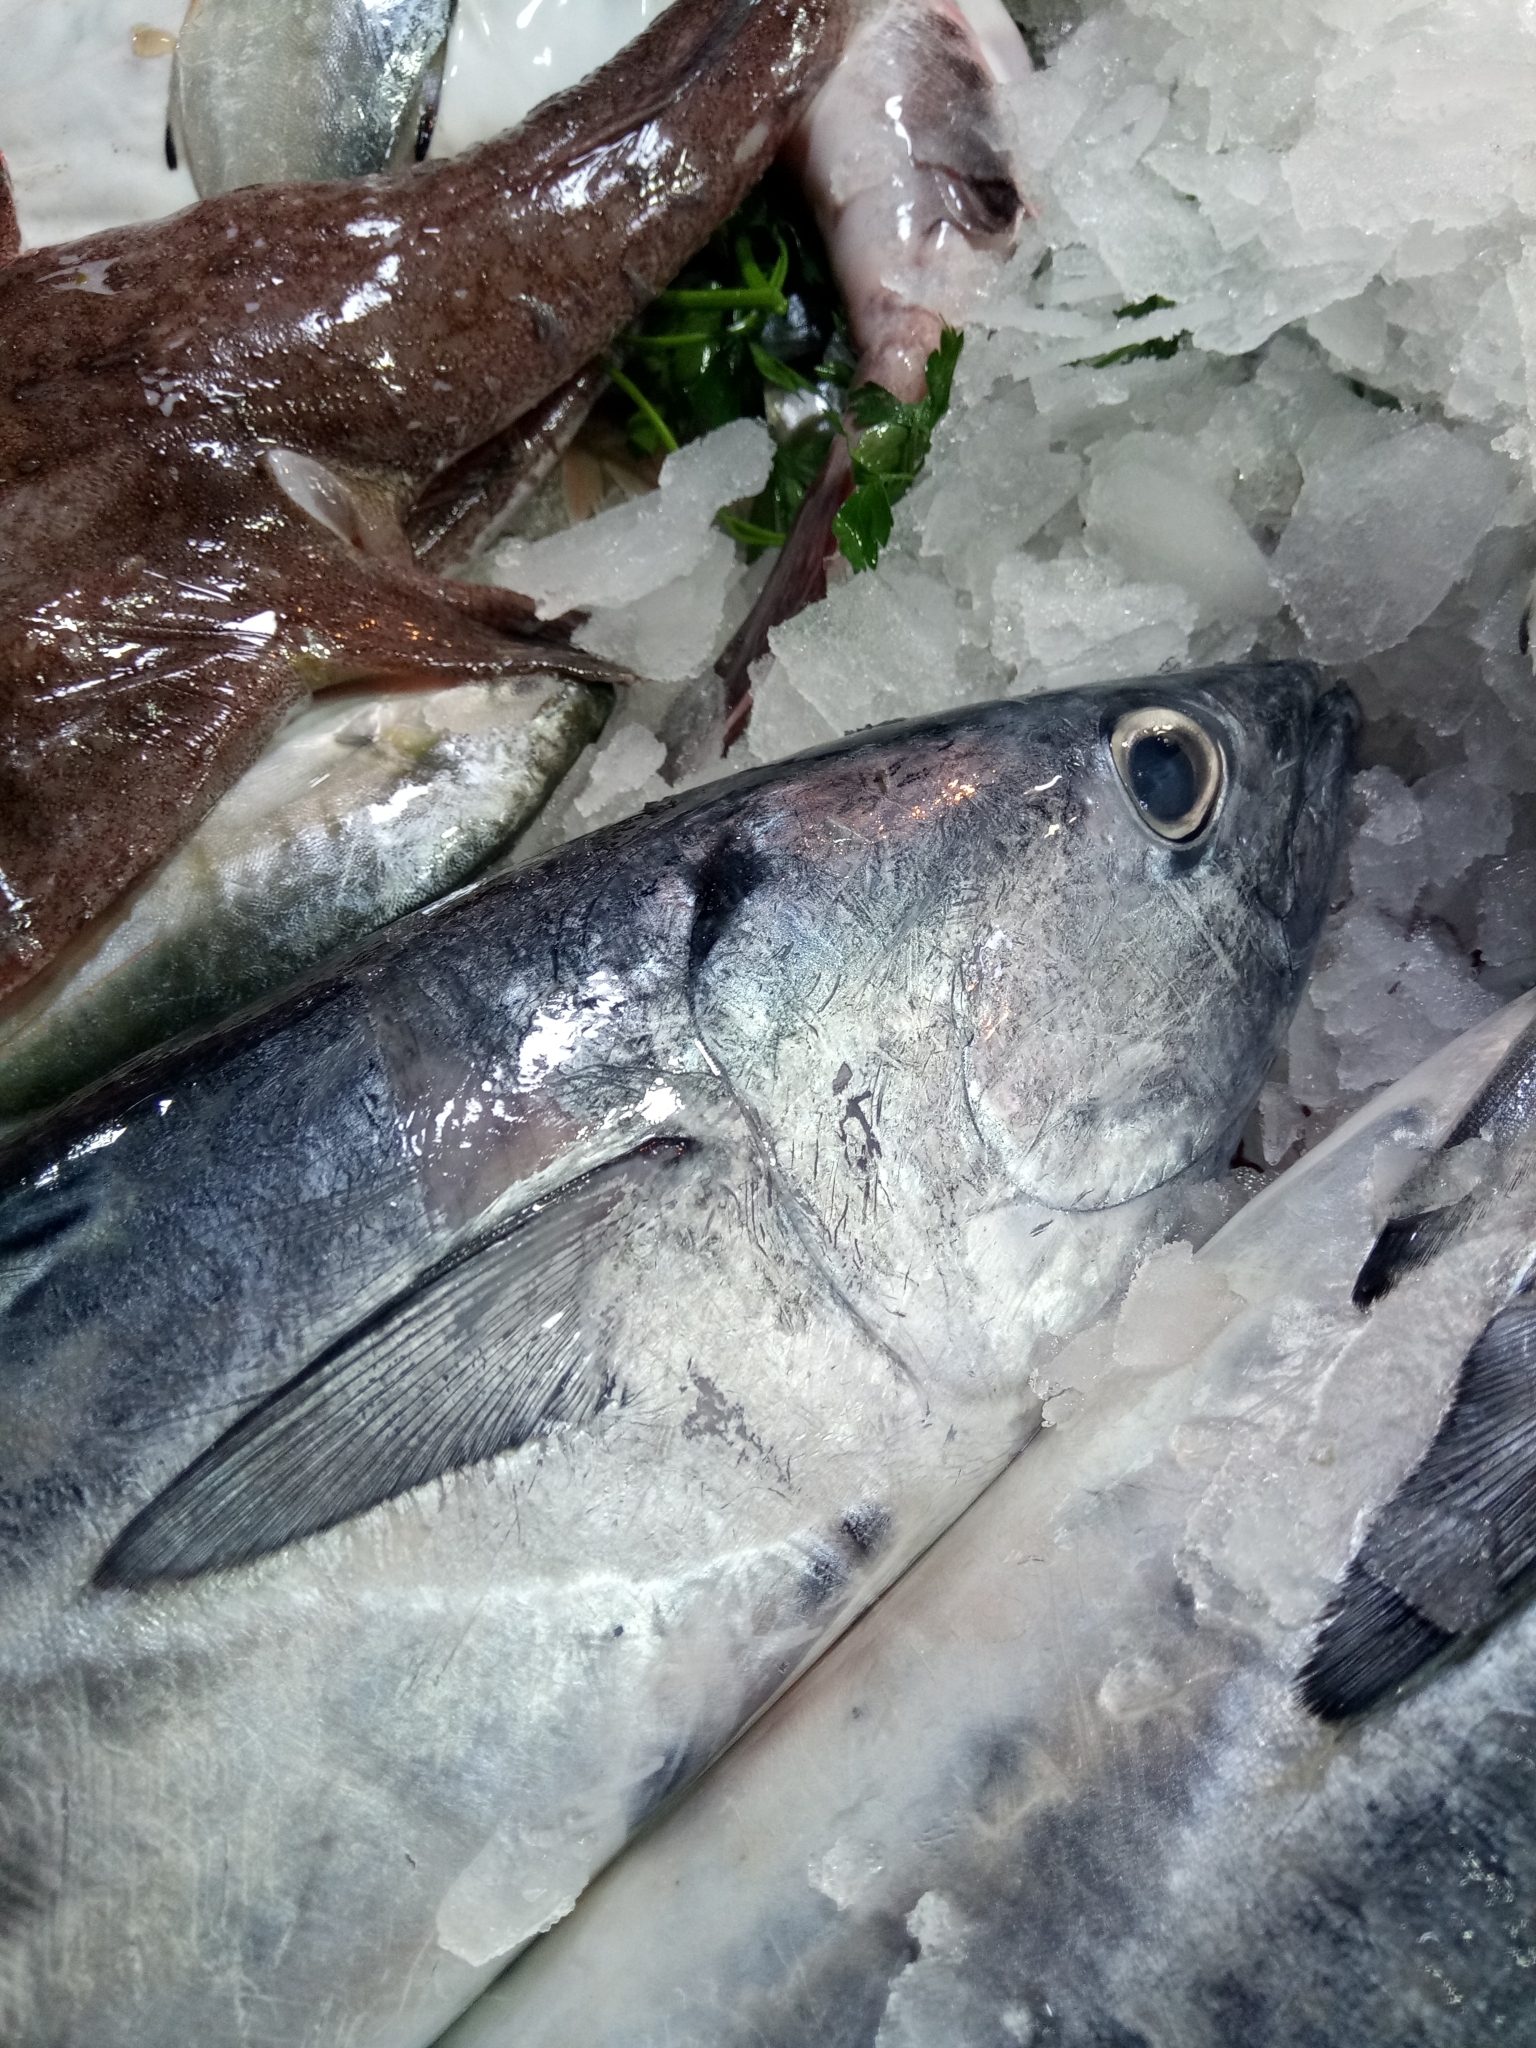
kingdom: Animalia
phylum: Chordata
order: Perciformes
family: Scombridae
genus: Euthynnus
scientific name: Euthynnus alletteratus
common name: Little tunny
